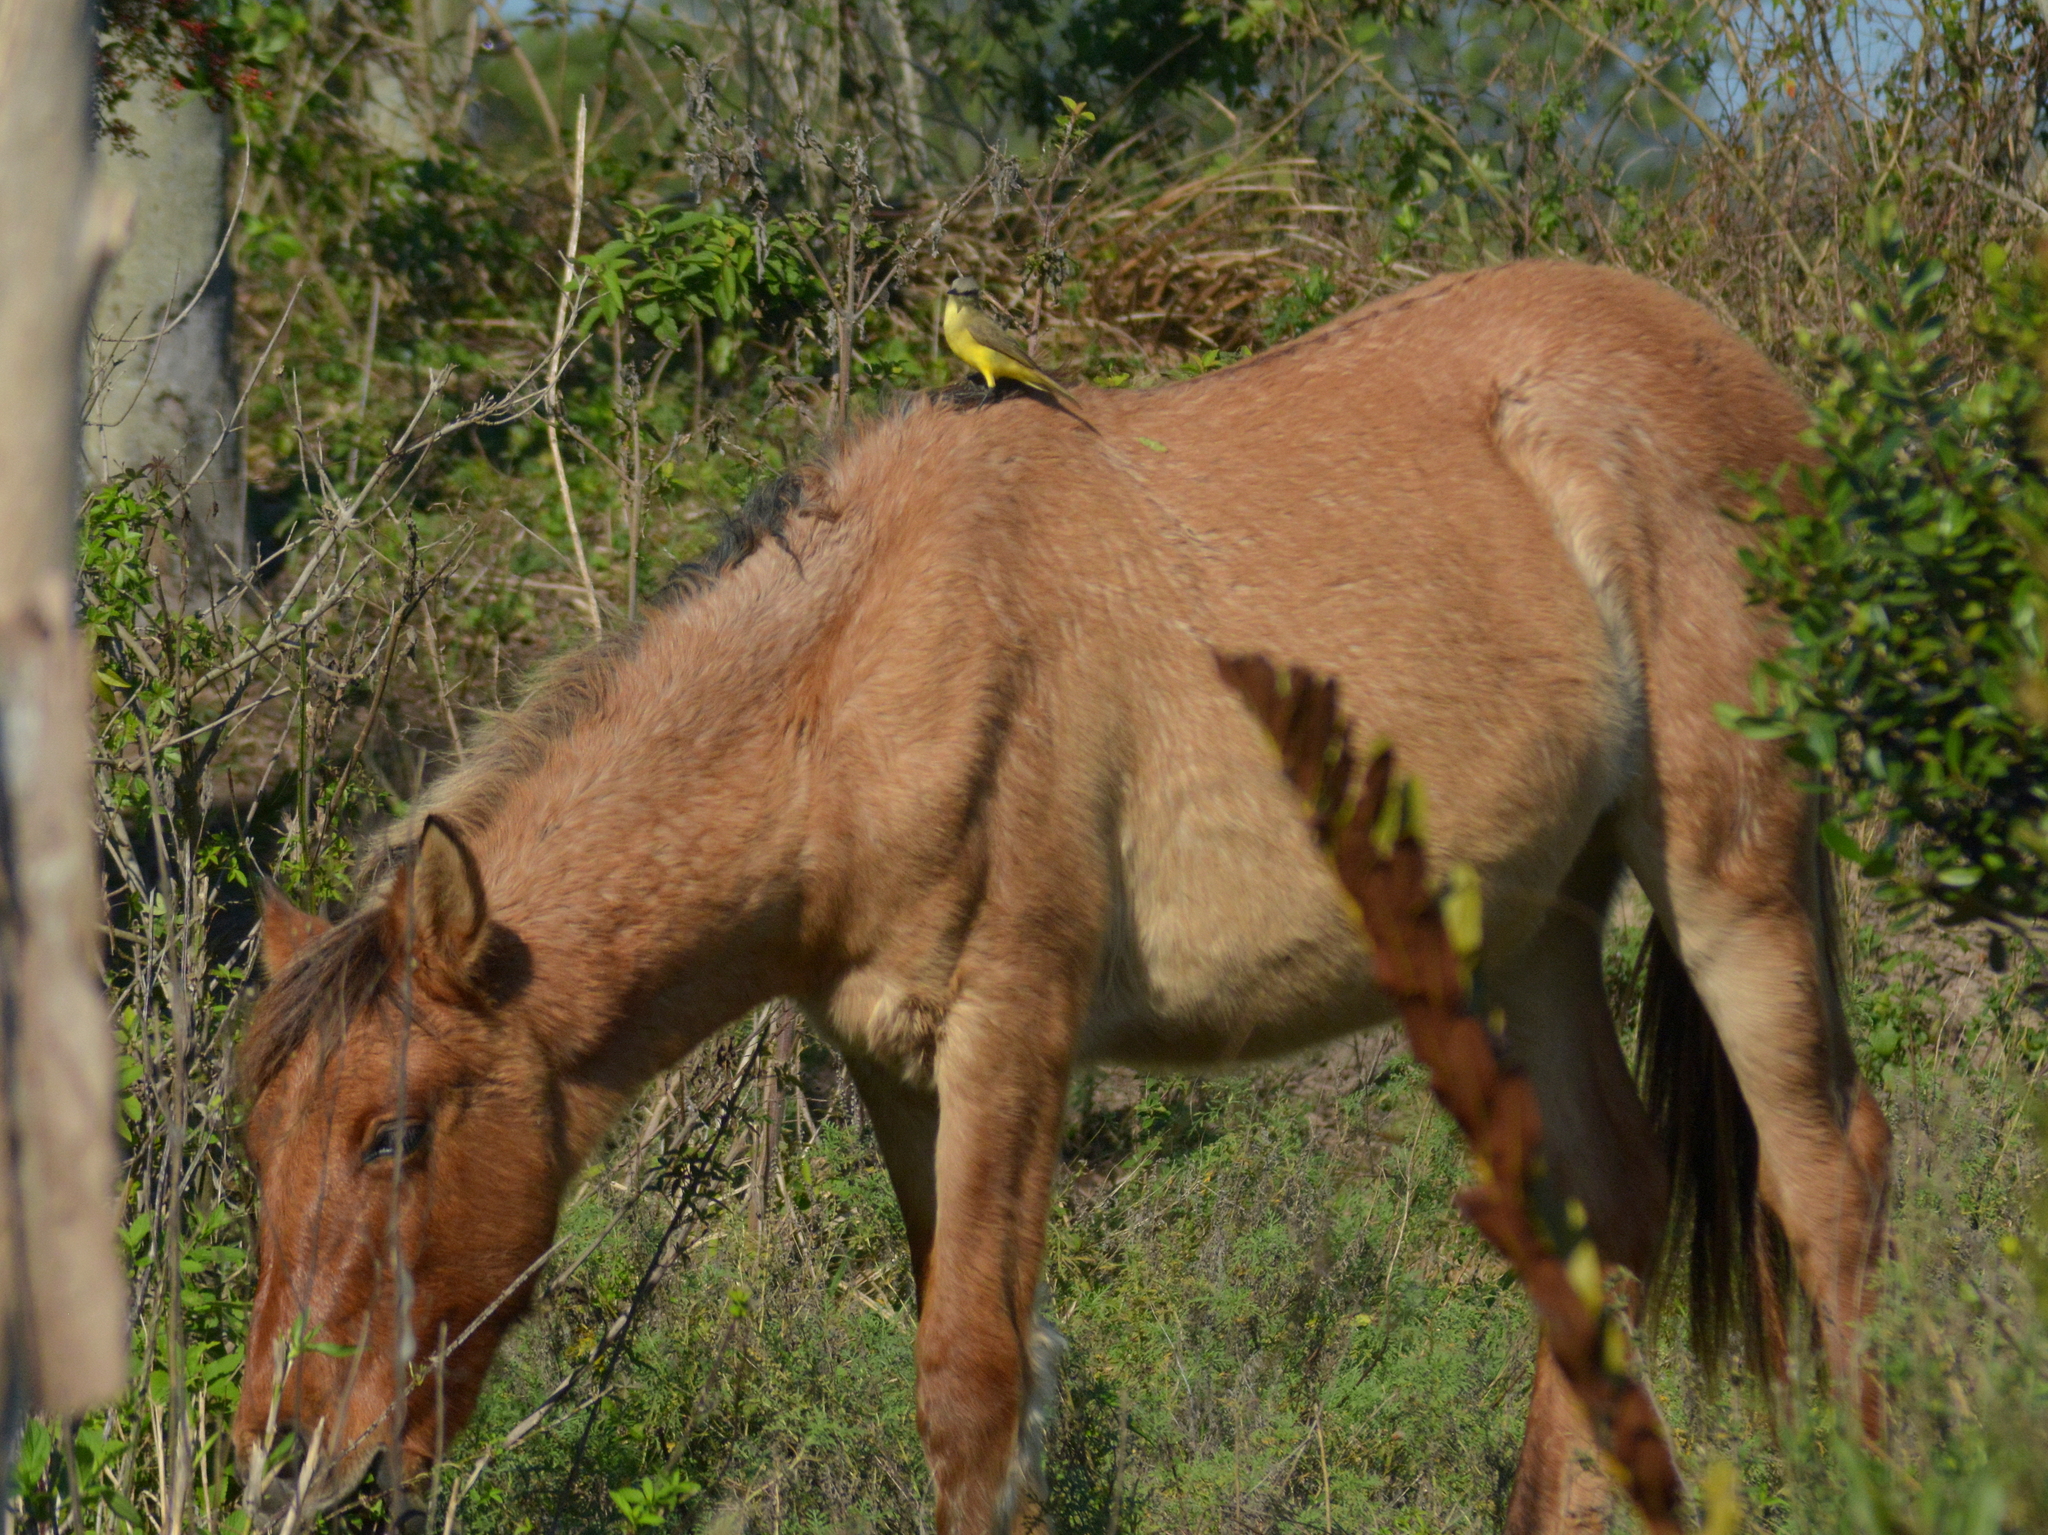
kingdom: Animalia
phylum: Chordata
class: Aves
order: Passeriformes
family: Tyrannidae
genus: Machetornis
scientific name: Machetornis rixosa
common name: Cattle tyrant
